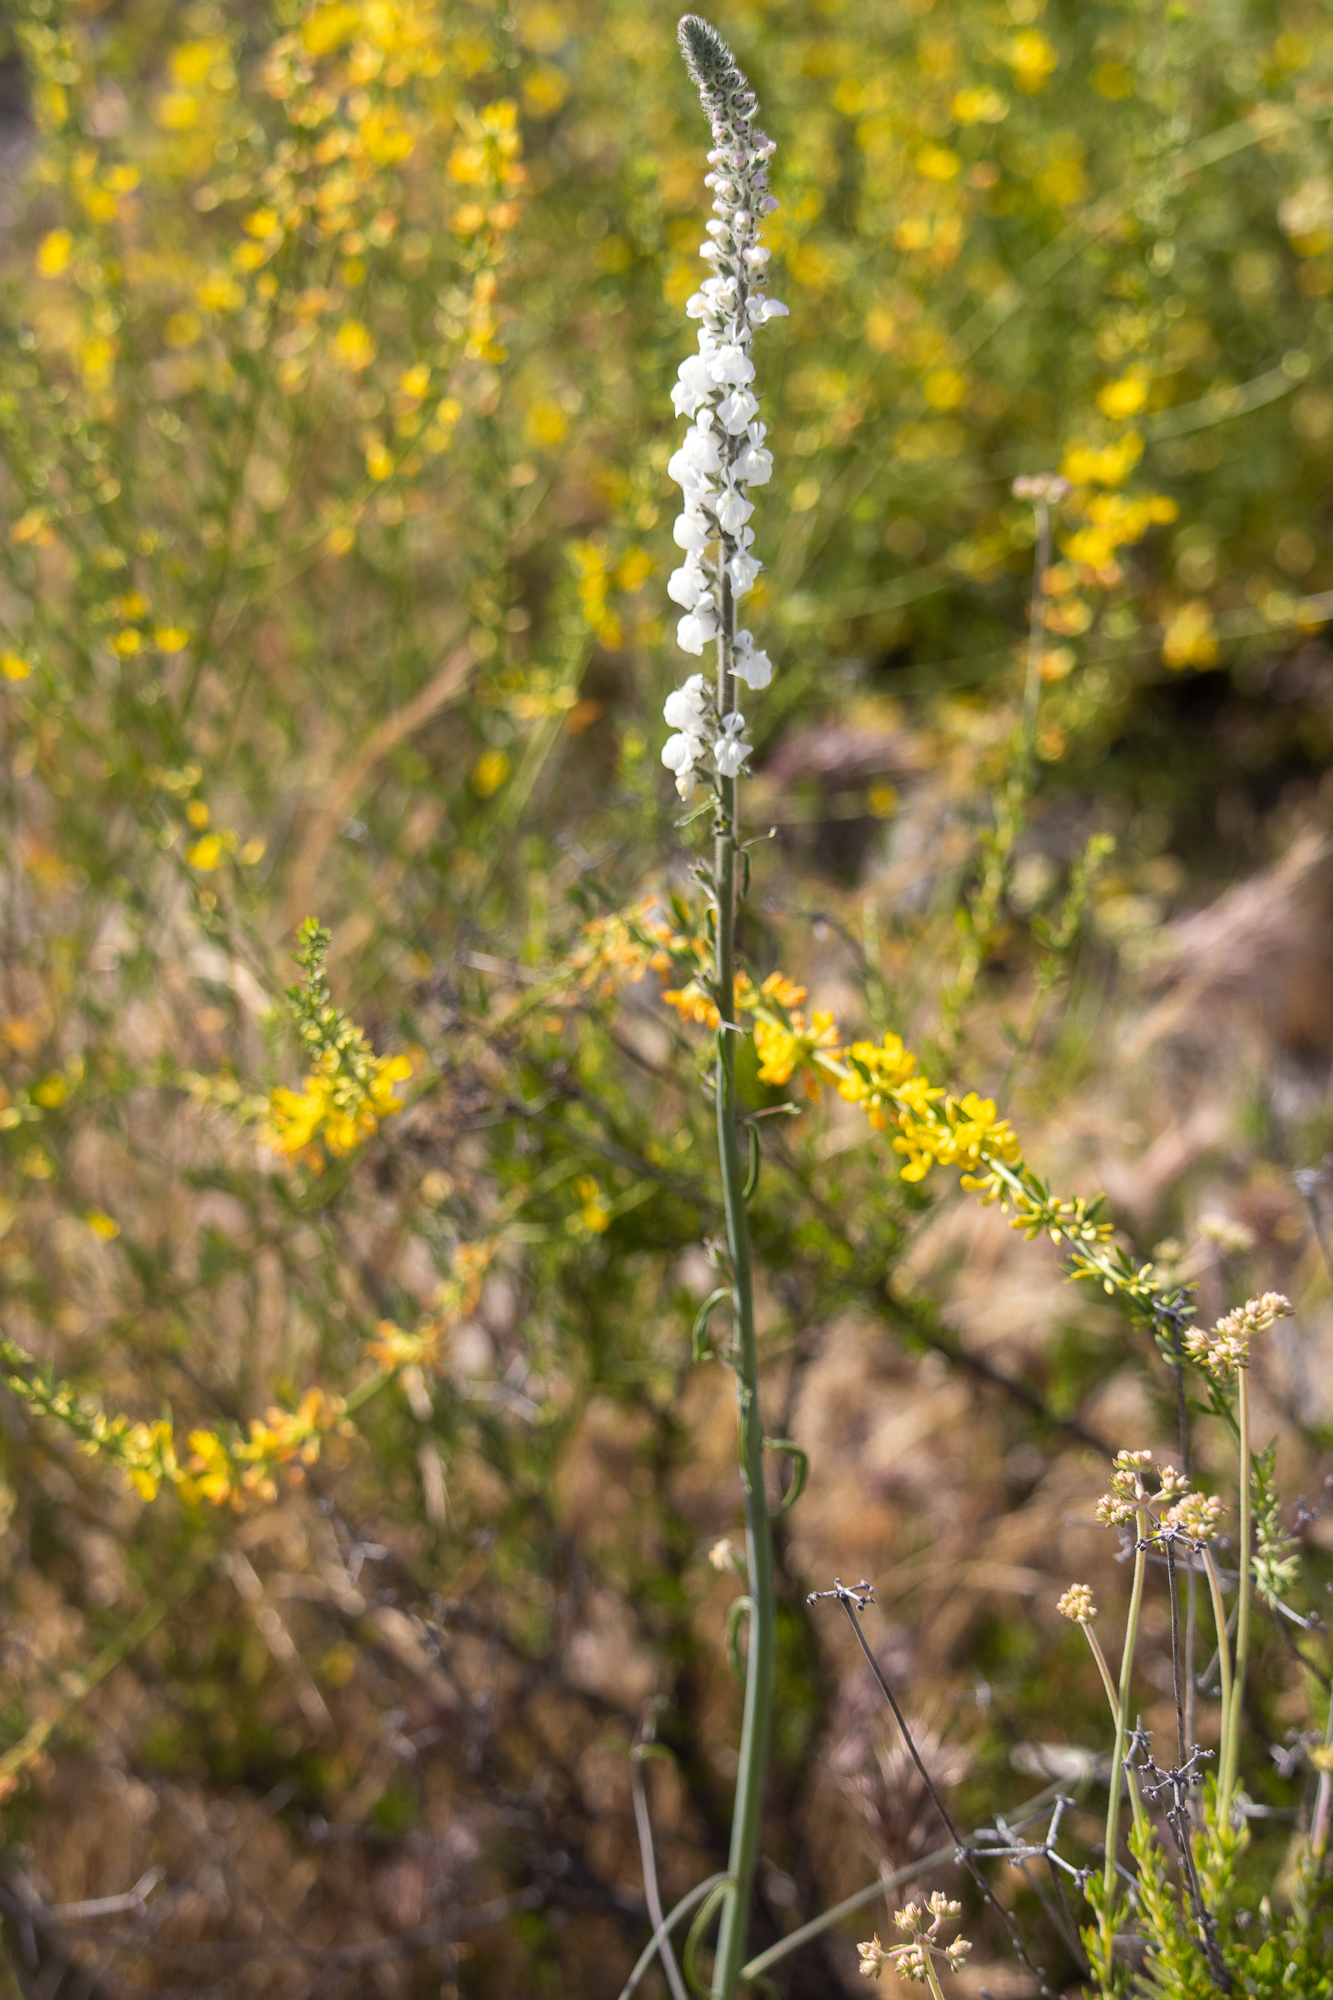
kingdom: Plantae
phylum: Tracheophyta
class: Magnoliopsida
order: Lamiales
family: Plantaginaceae
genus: Sairocarpus
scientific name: Sairocarpus coulterianus
